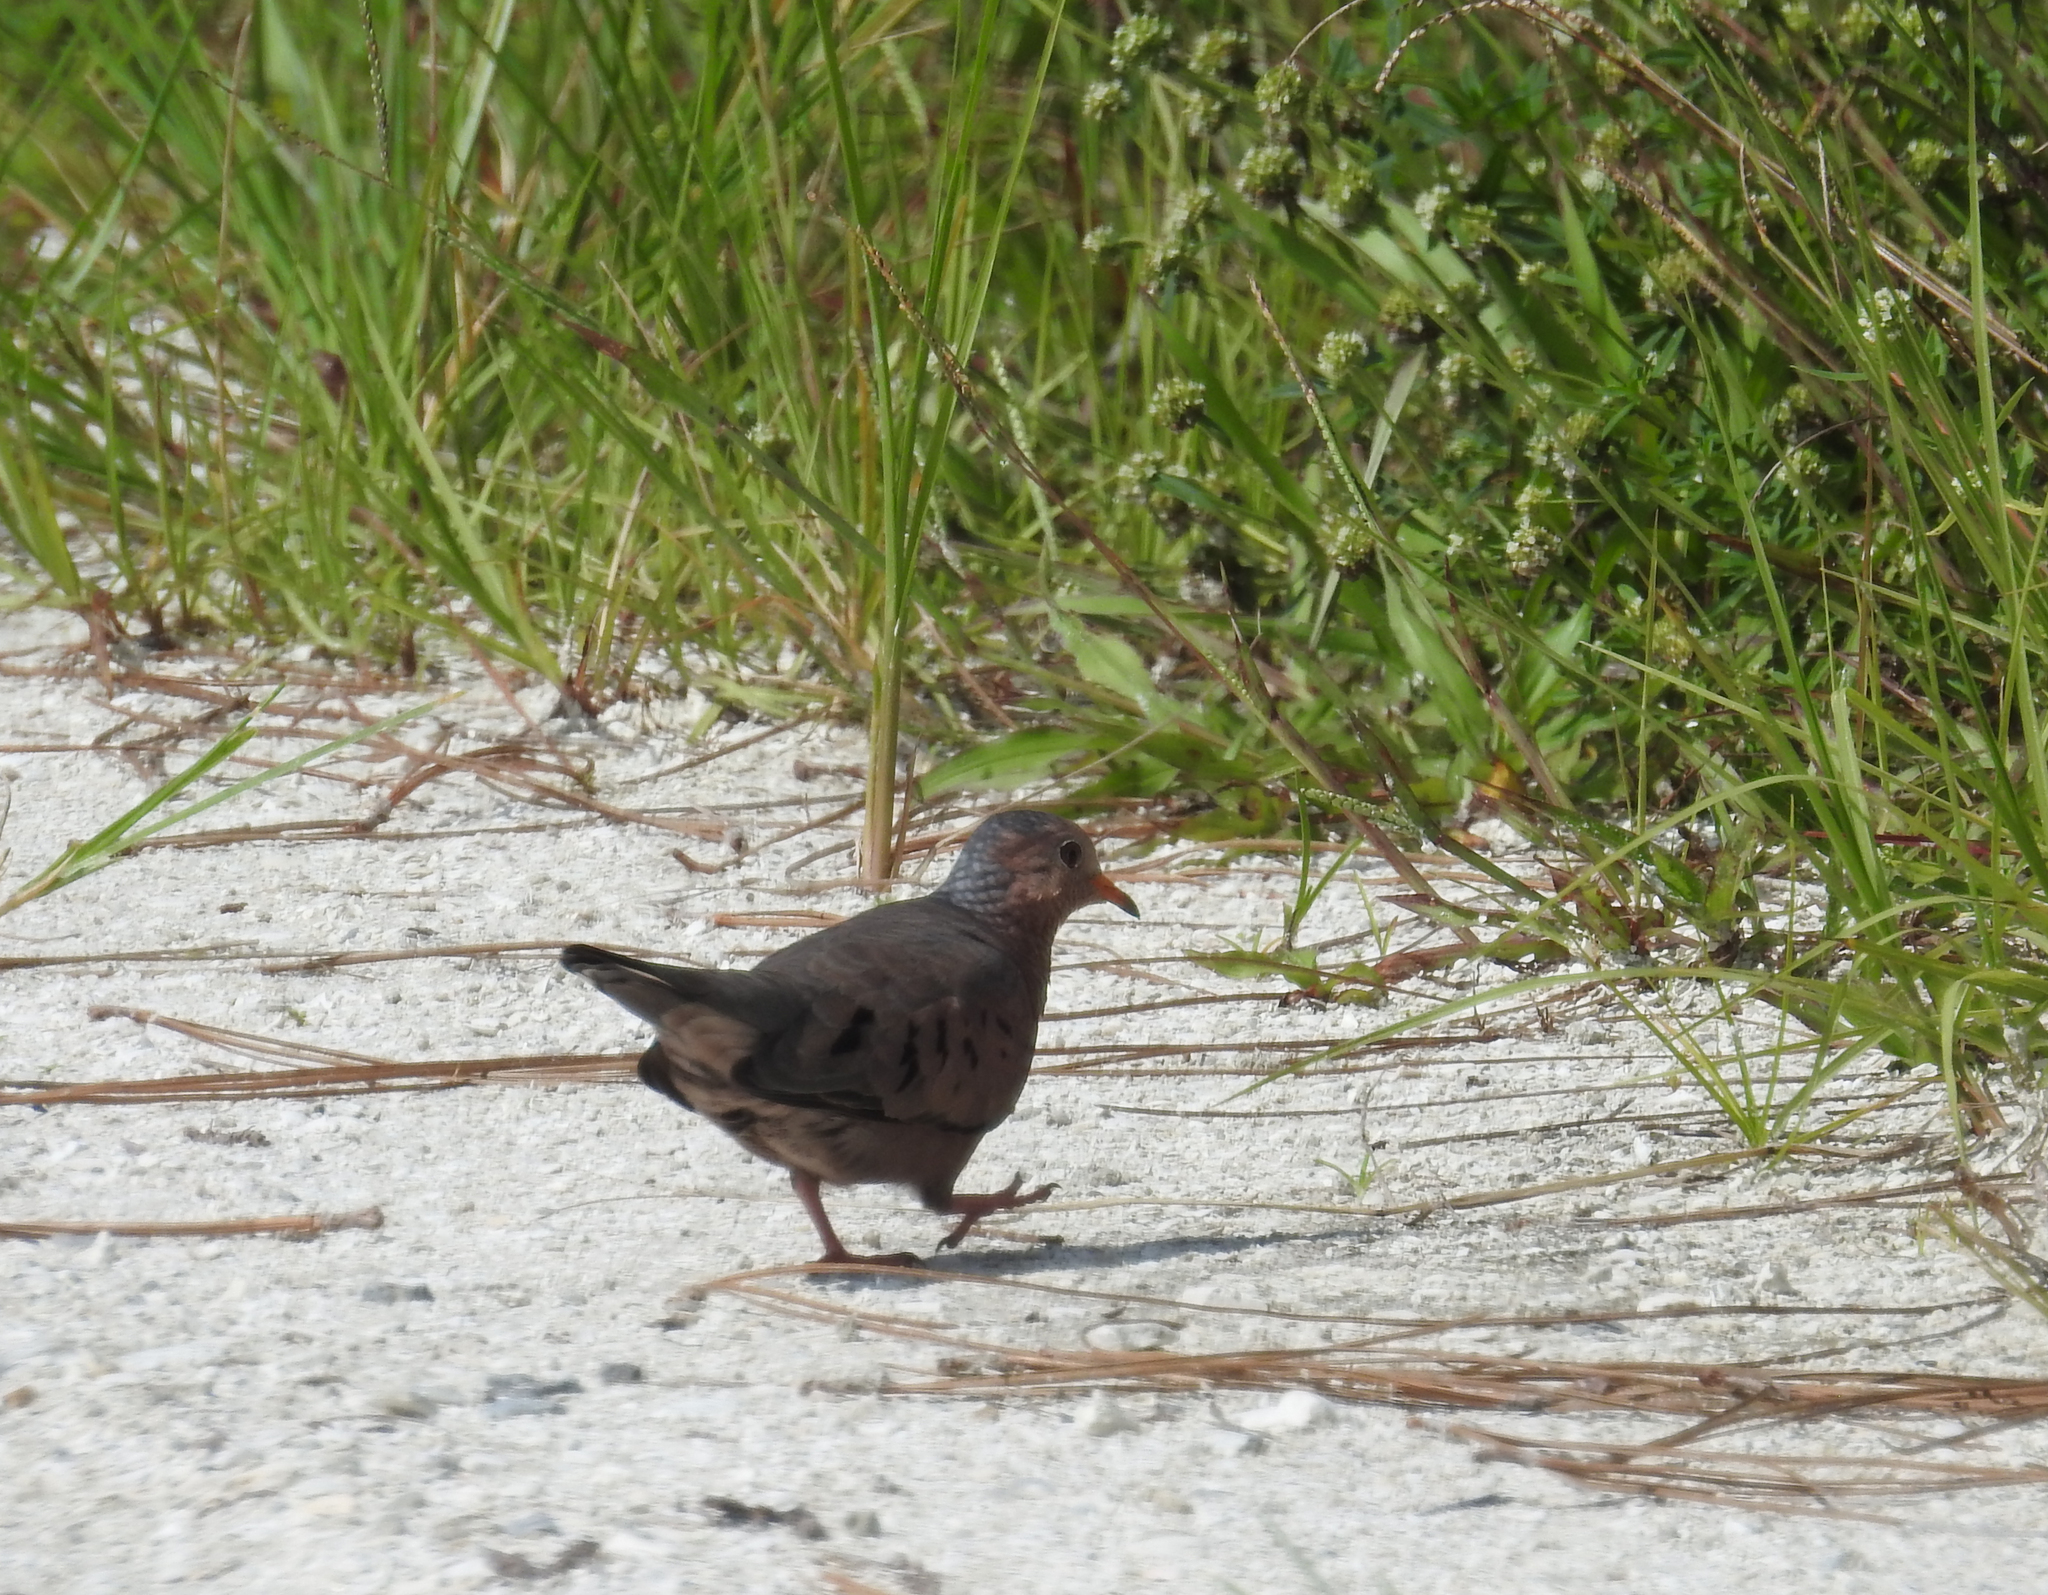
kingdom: Animalia
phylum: Chordata
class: Aves
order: Columbiformes
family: Columbidae
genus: Columbina
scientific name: Columbina passerina
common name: Common ground-dove
